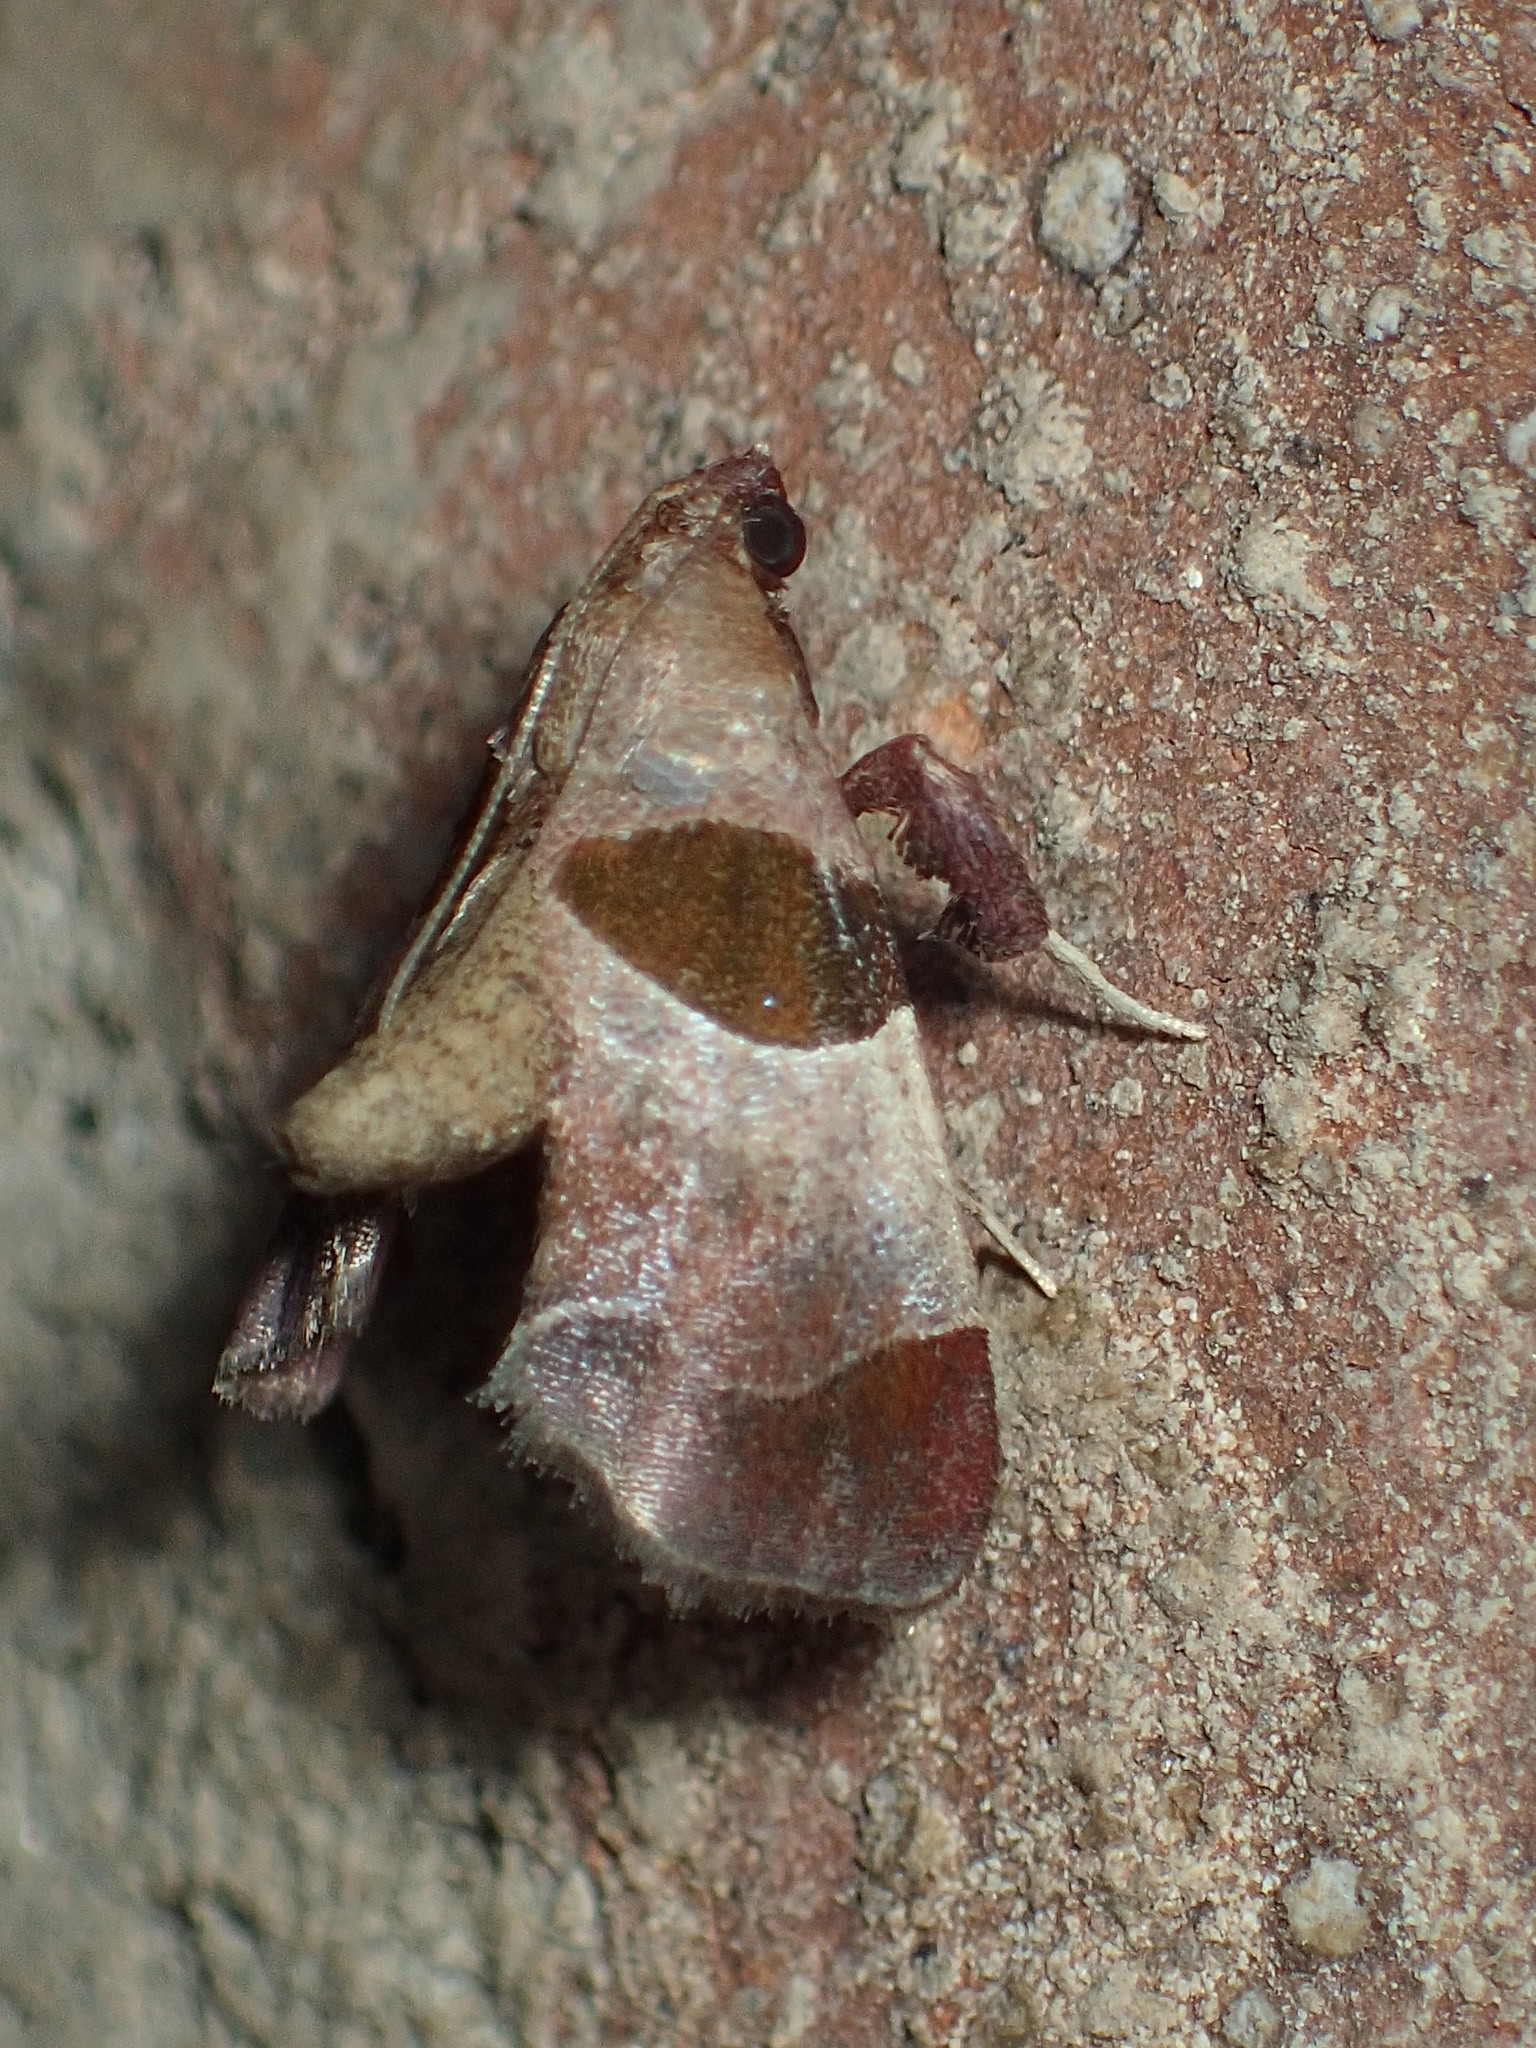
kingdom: Animalia
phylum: Arthropoda
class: Insecta
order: Lepidoptera
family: Pyralidae
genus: Tosale
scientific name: Tosale oviplagalis
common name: Dimorphic tosale moth
